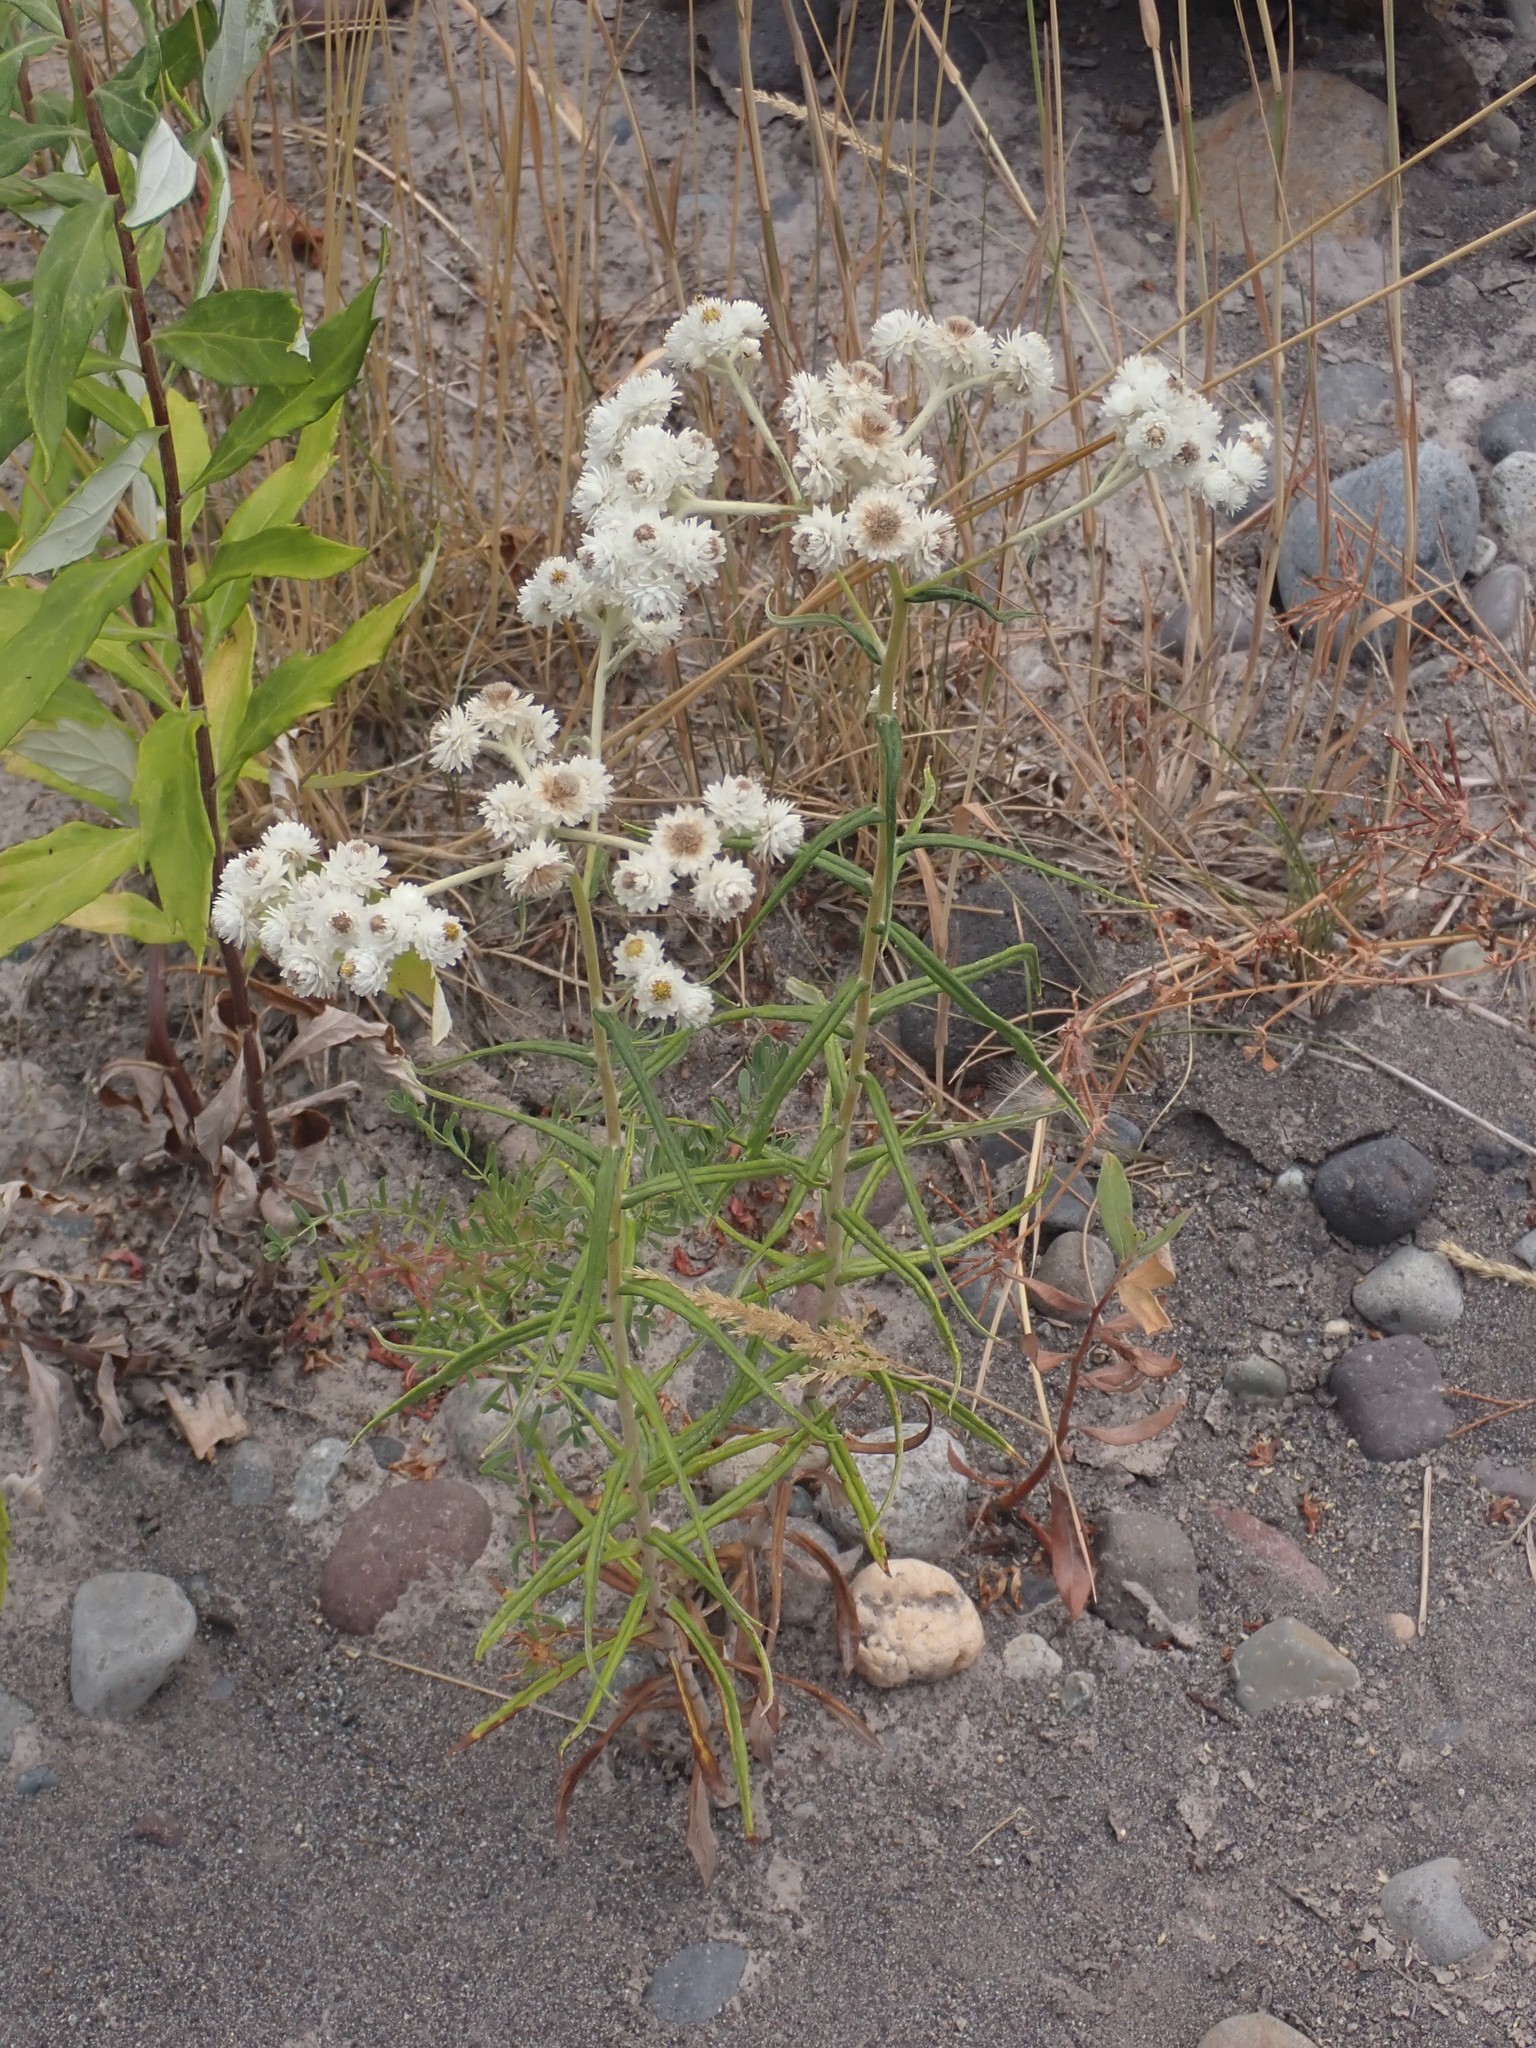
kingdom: Plantae
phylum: Tracheophyta
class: Magnoliopsida
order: Asterales
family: Asteraceae
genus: Anaphalis
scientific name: Anaphalis margaritacea
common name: Pearly everlasting
